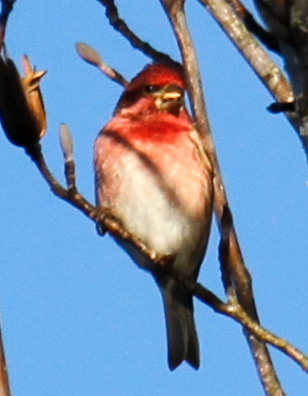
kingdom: Animalia
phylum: Chordata
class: Aves
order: Passeriformes
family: Fringillidae
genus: Haemorhous
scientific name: Haemorhous purpureus
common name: Purple finch
